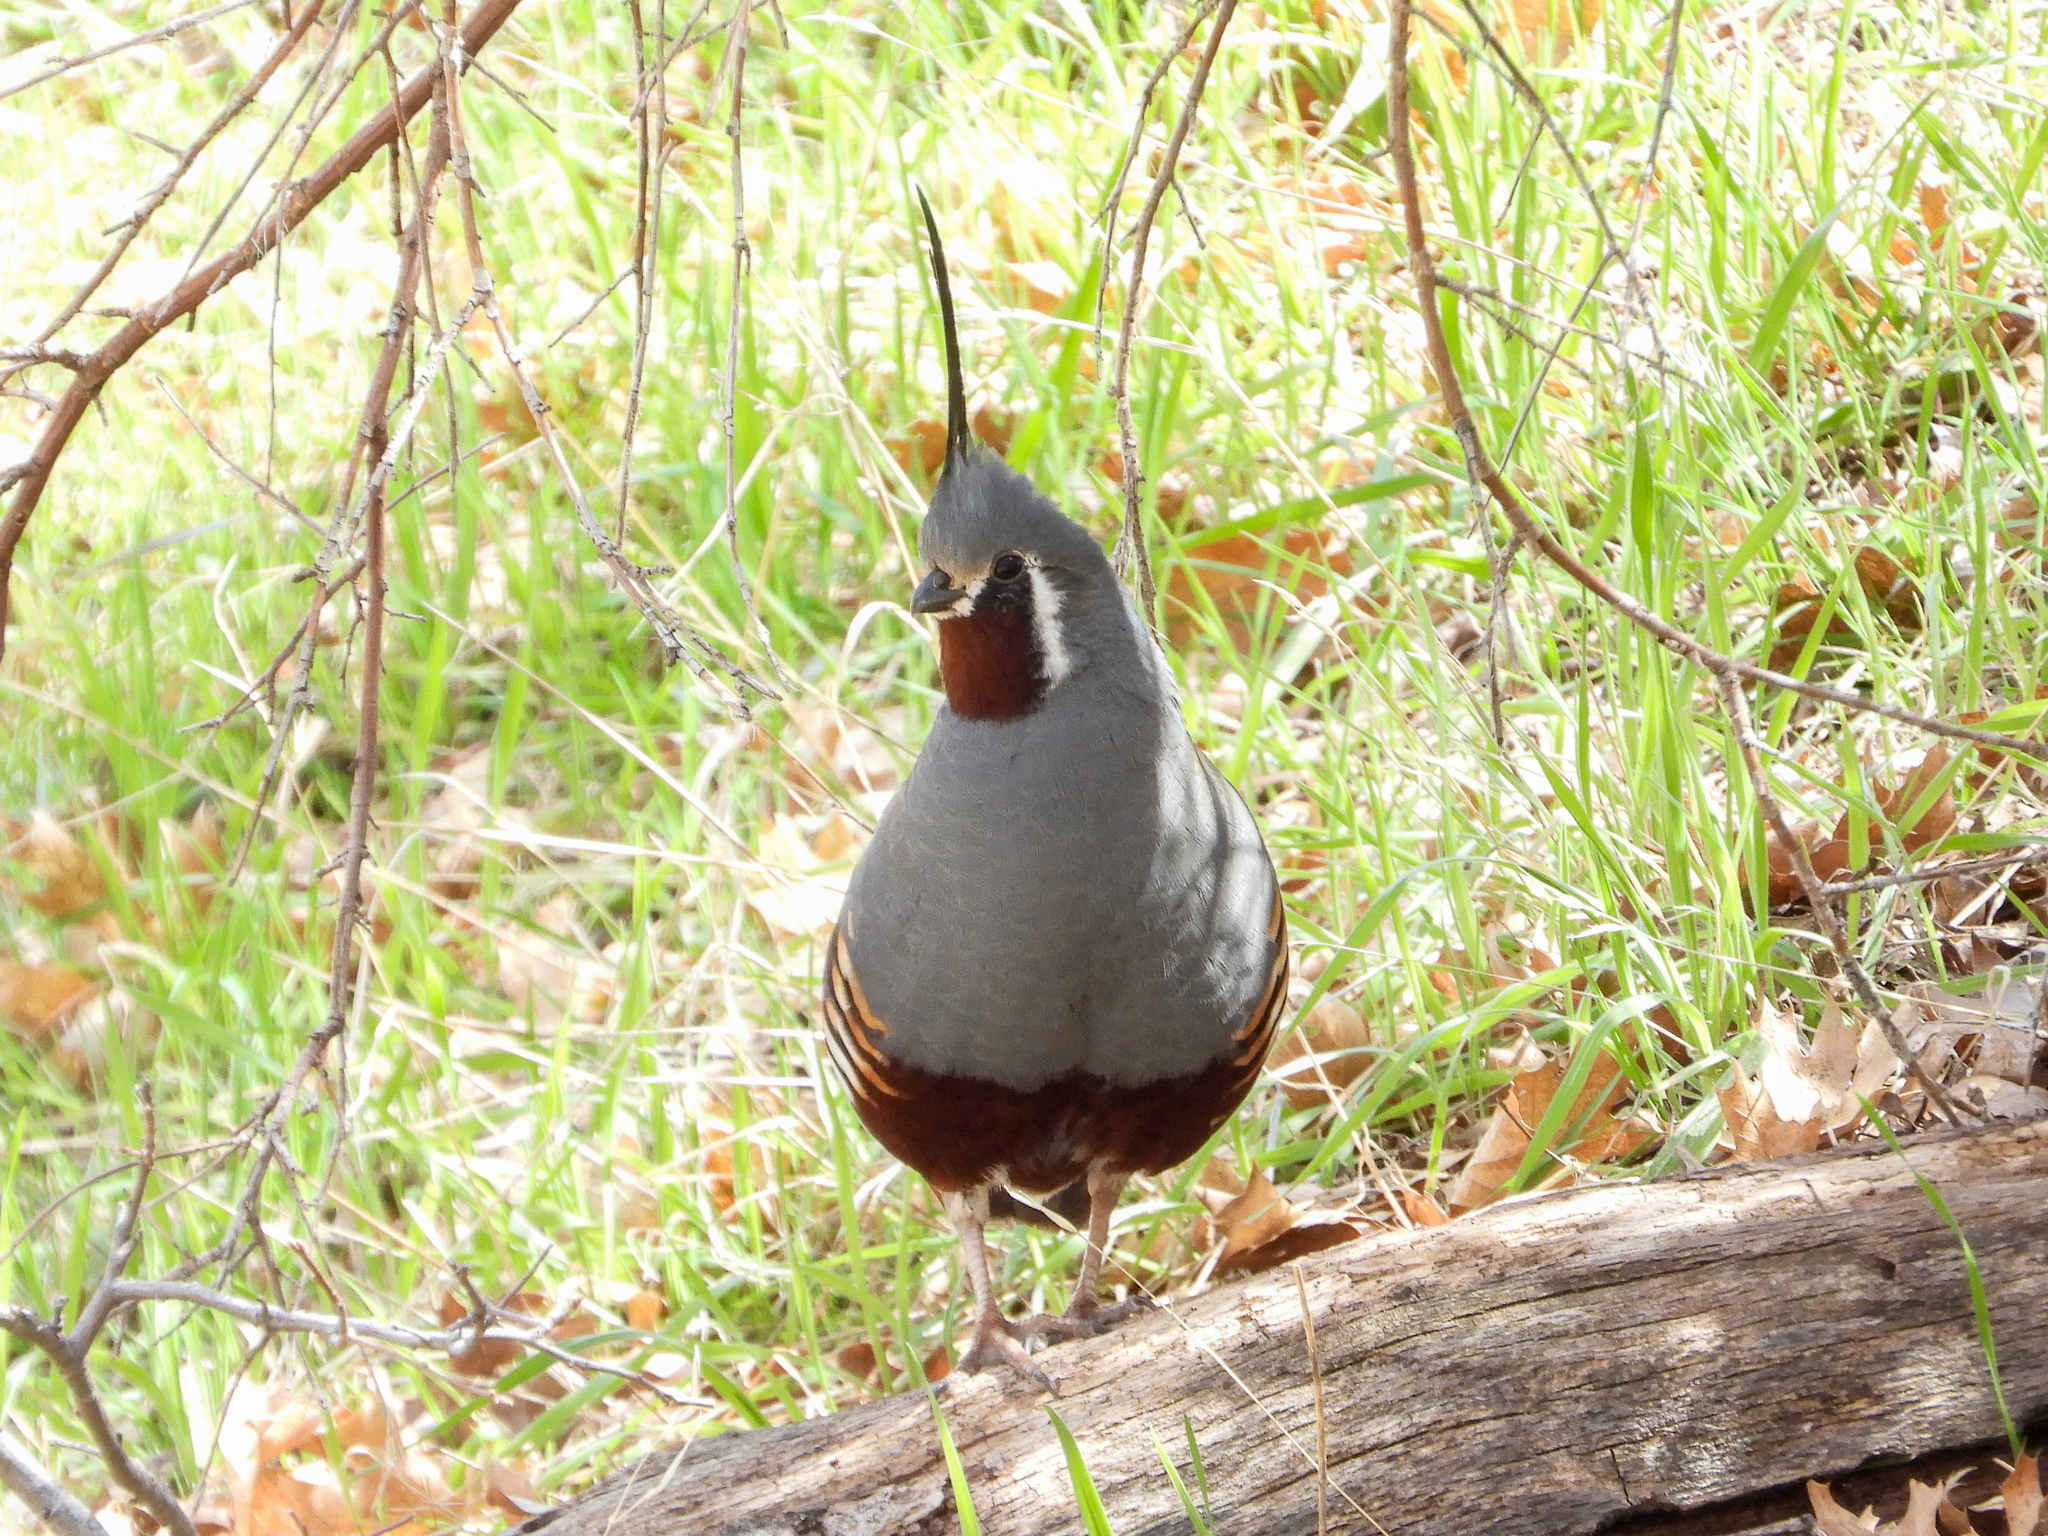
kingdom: Animalia
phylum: Chordata
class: Aves
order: Galliformes
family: Odontophoridae
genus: Oreortyx
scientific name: Oreortyx pictus
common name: Mountain quail
